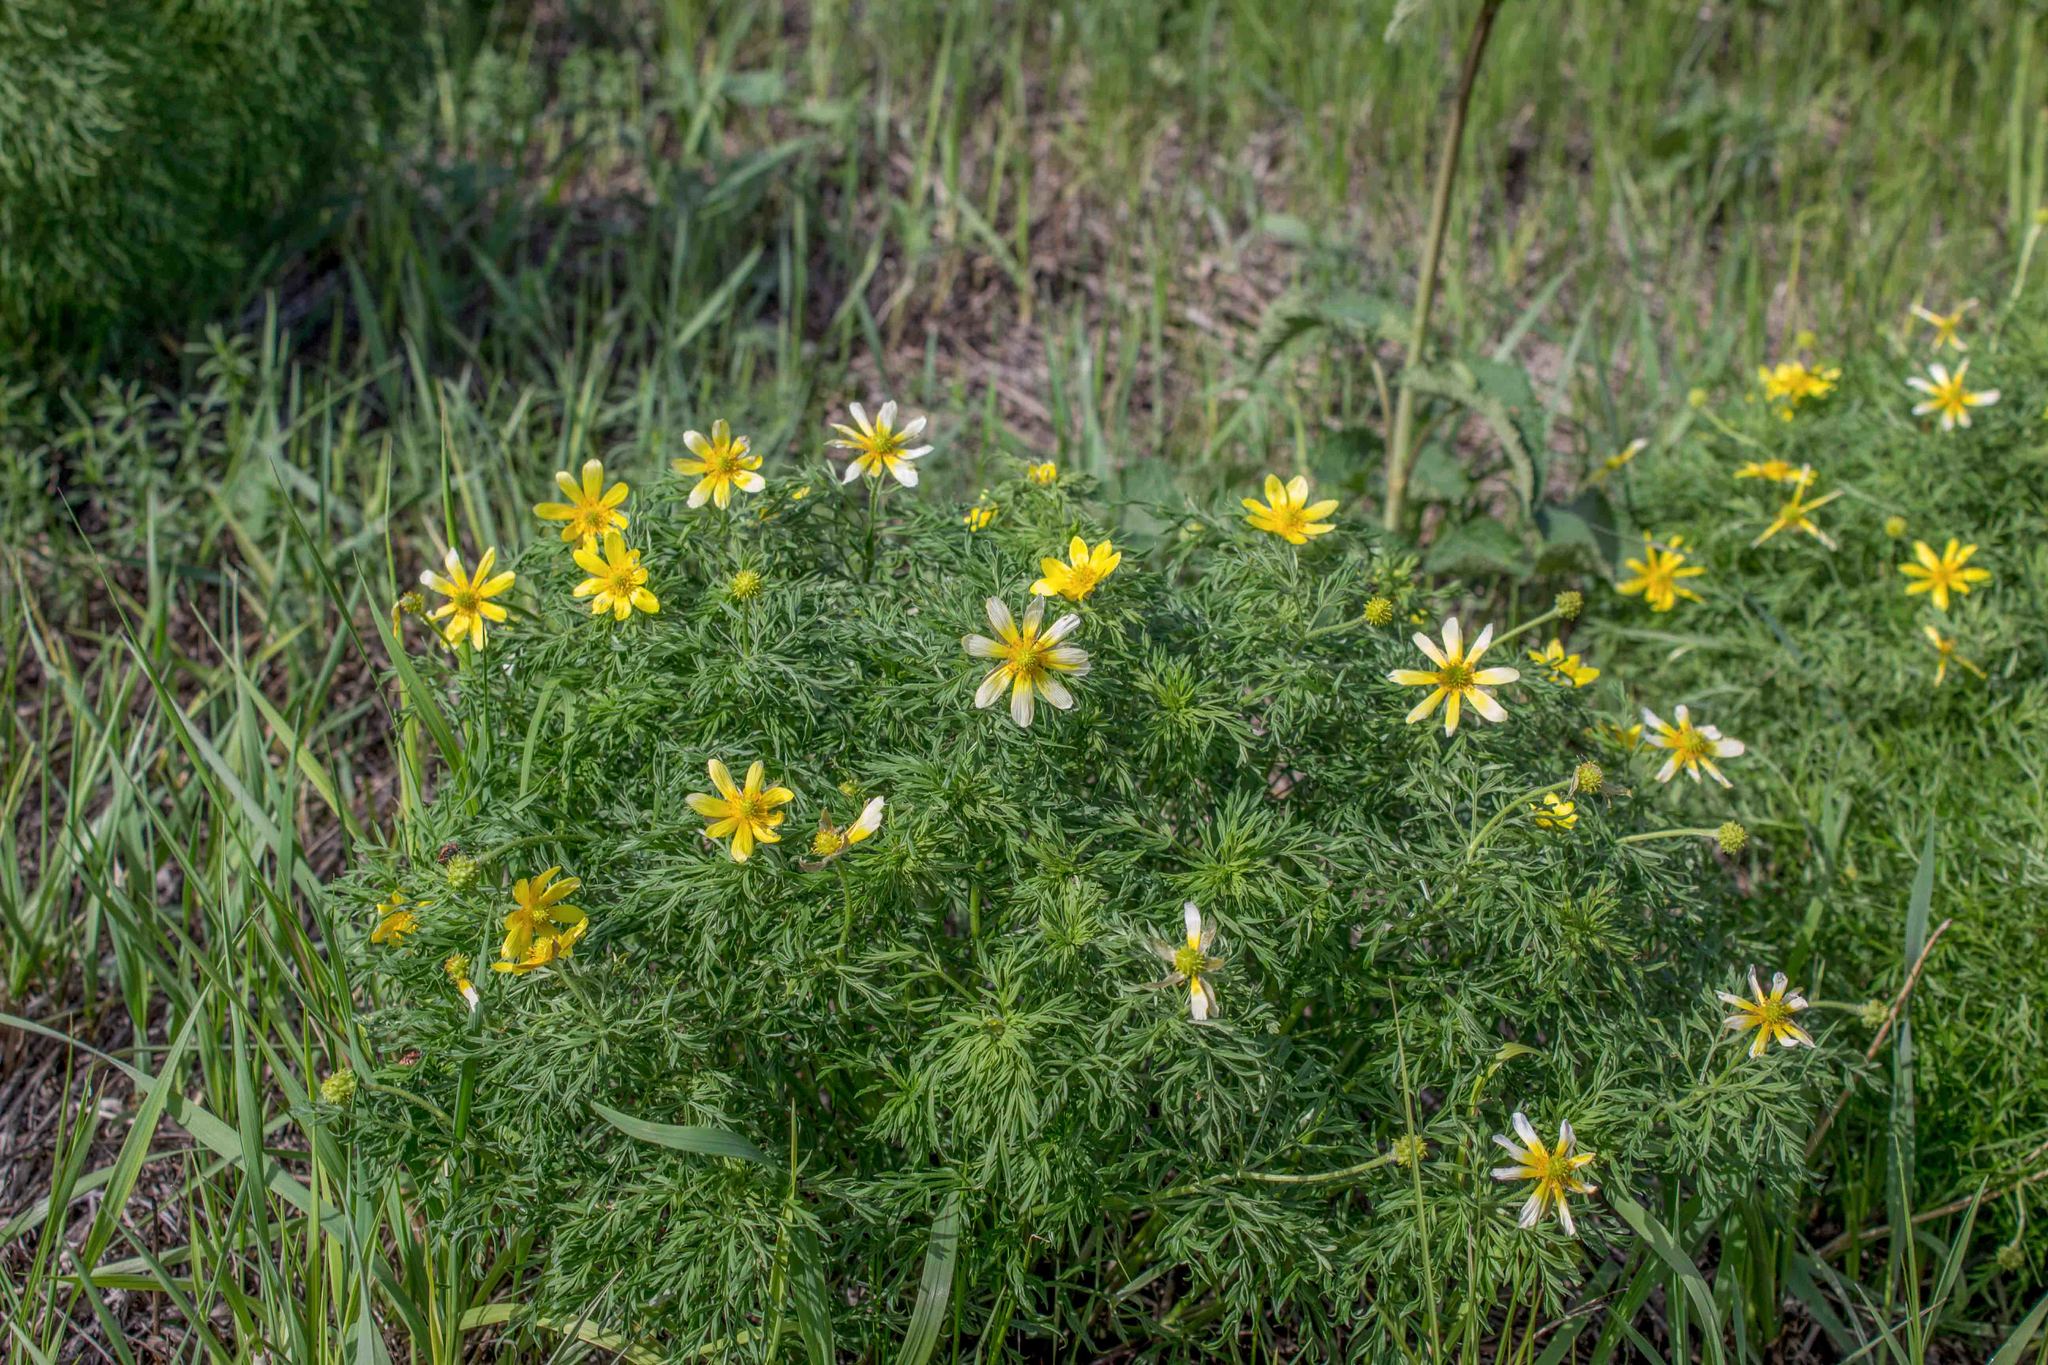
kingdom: Plantae
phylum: Tracheophyta
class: Magnoliopsida
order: Ranunculales
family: Ranunculaceae
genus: Adonis
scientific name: Adonis volgensis
